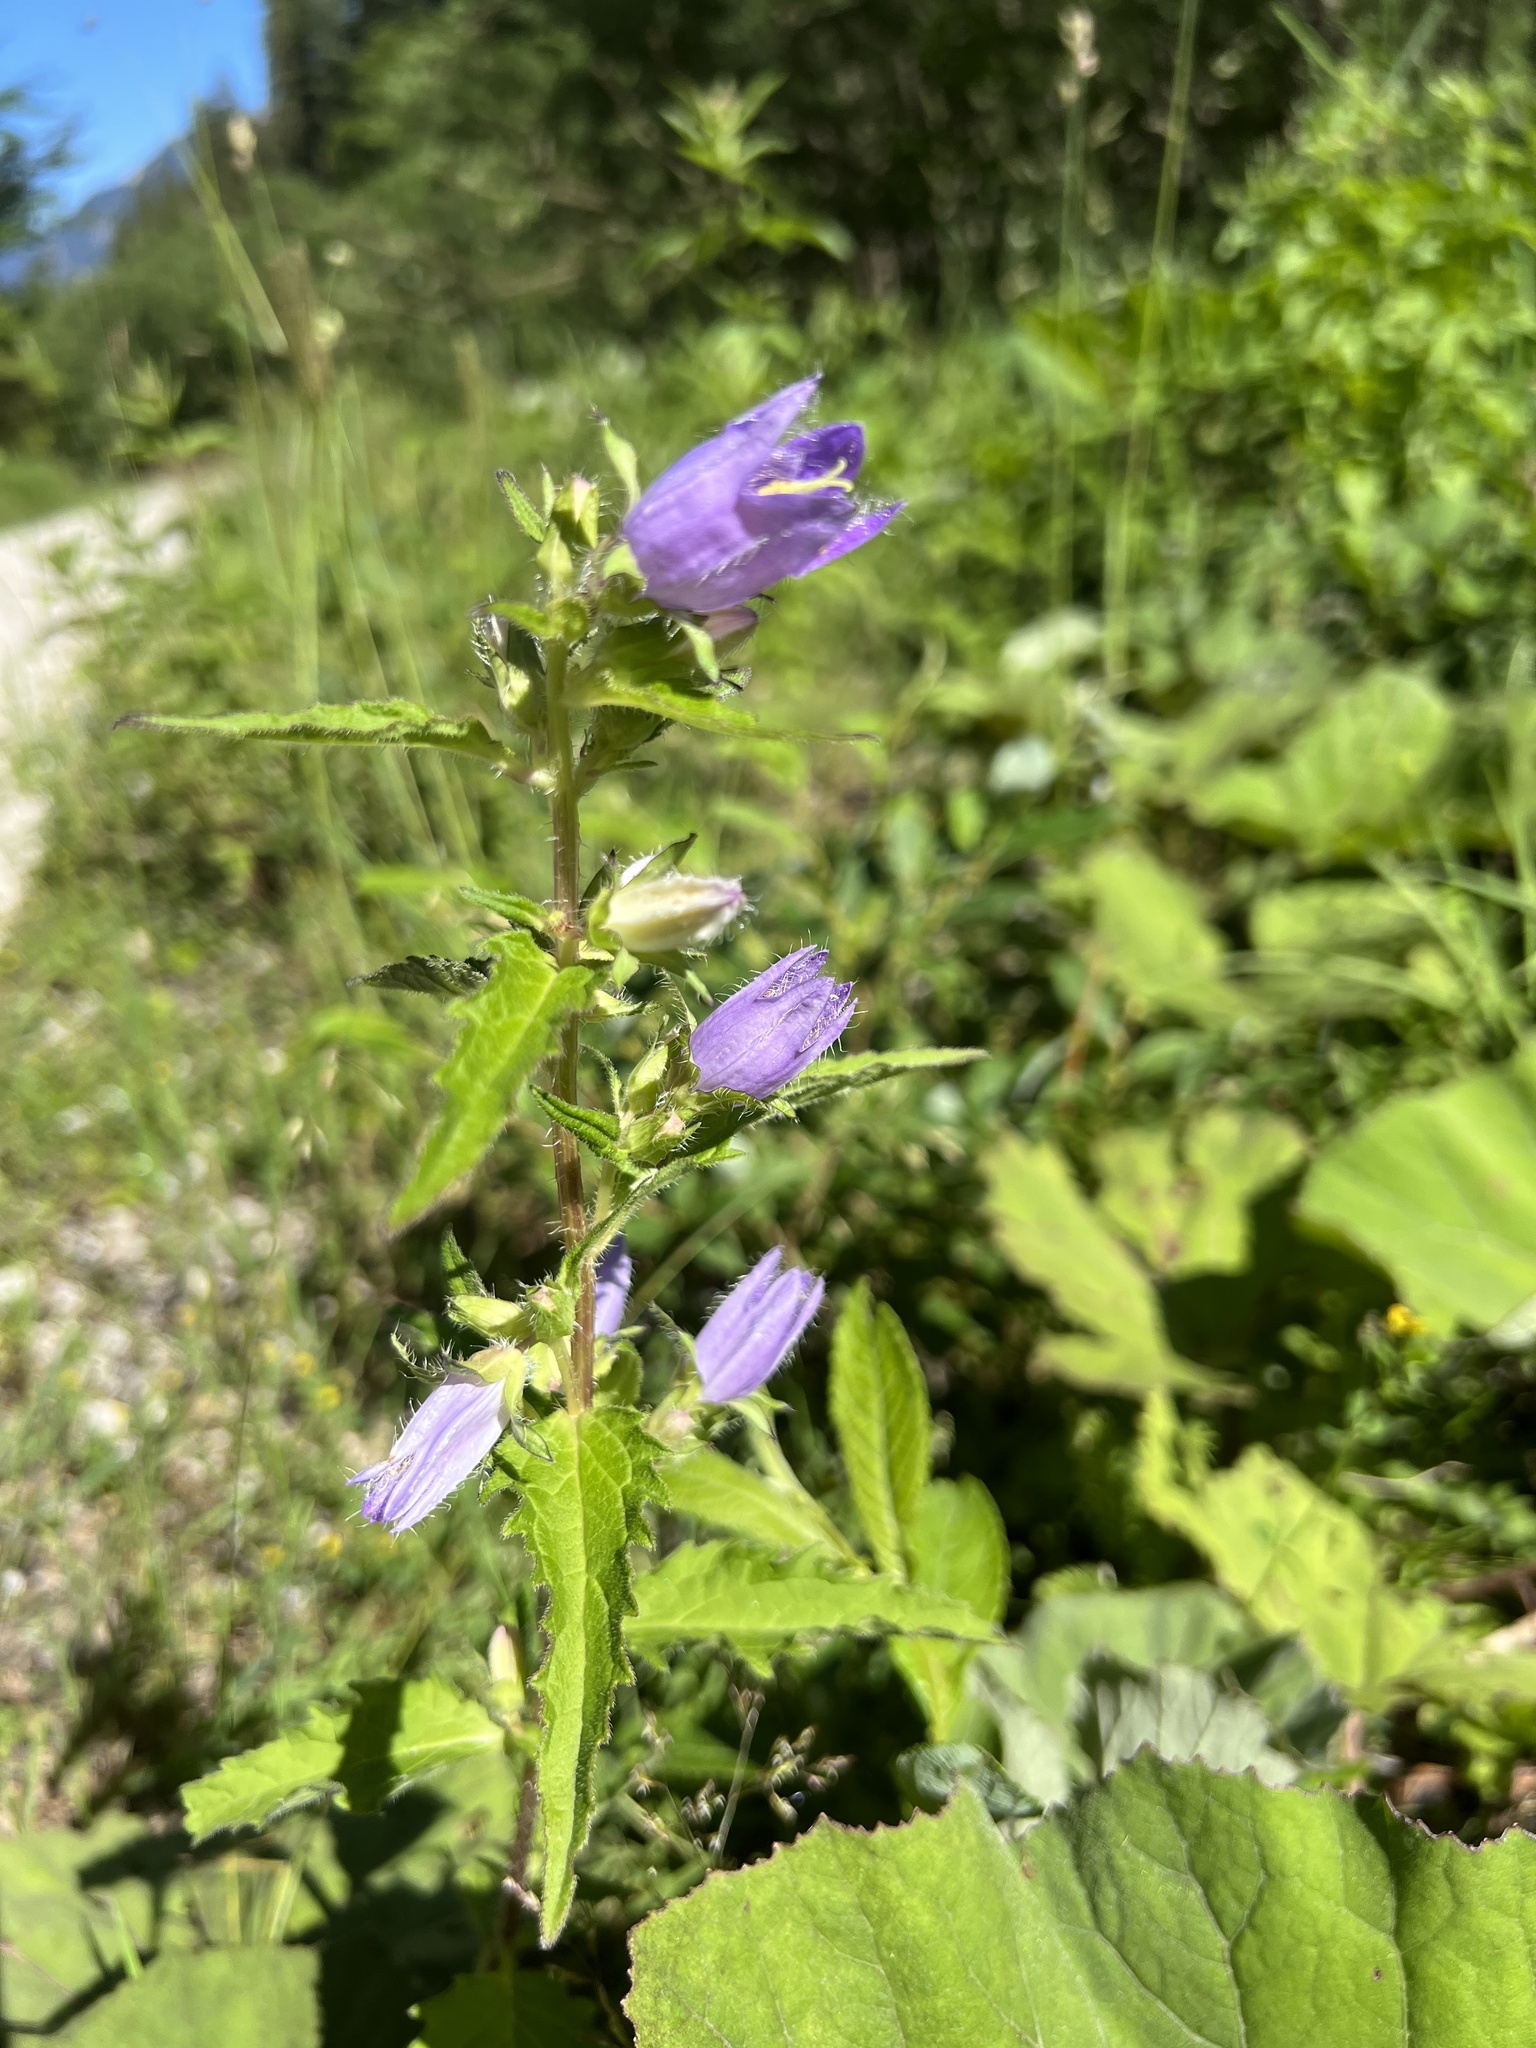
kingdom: Plantae
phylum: Tracheophyta
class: Magnoliopsida
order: Asterales
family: Campanulaceae
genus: Campanula
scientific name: Campanula trachelium
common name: Nettle-leaved bellflower
